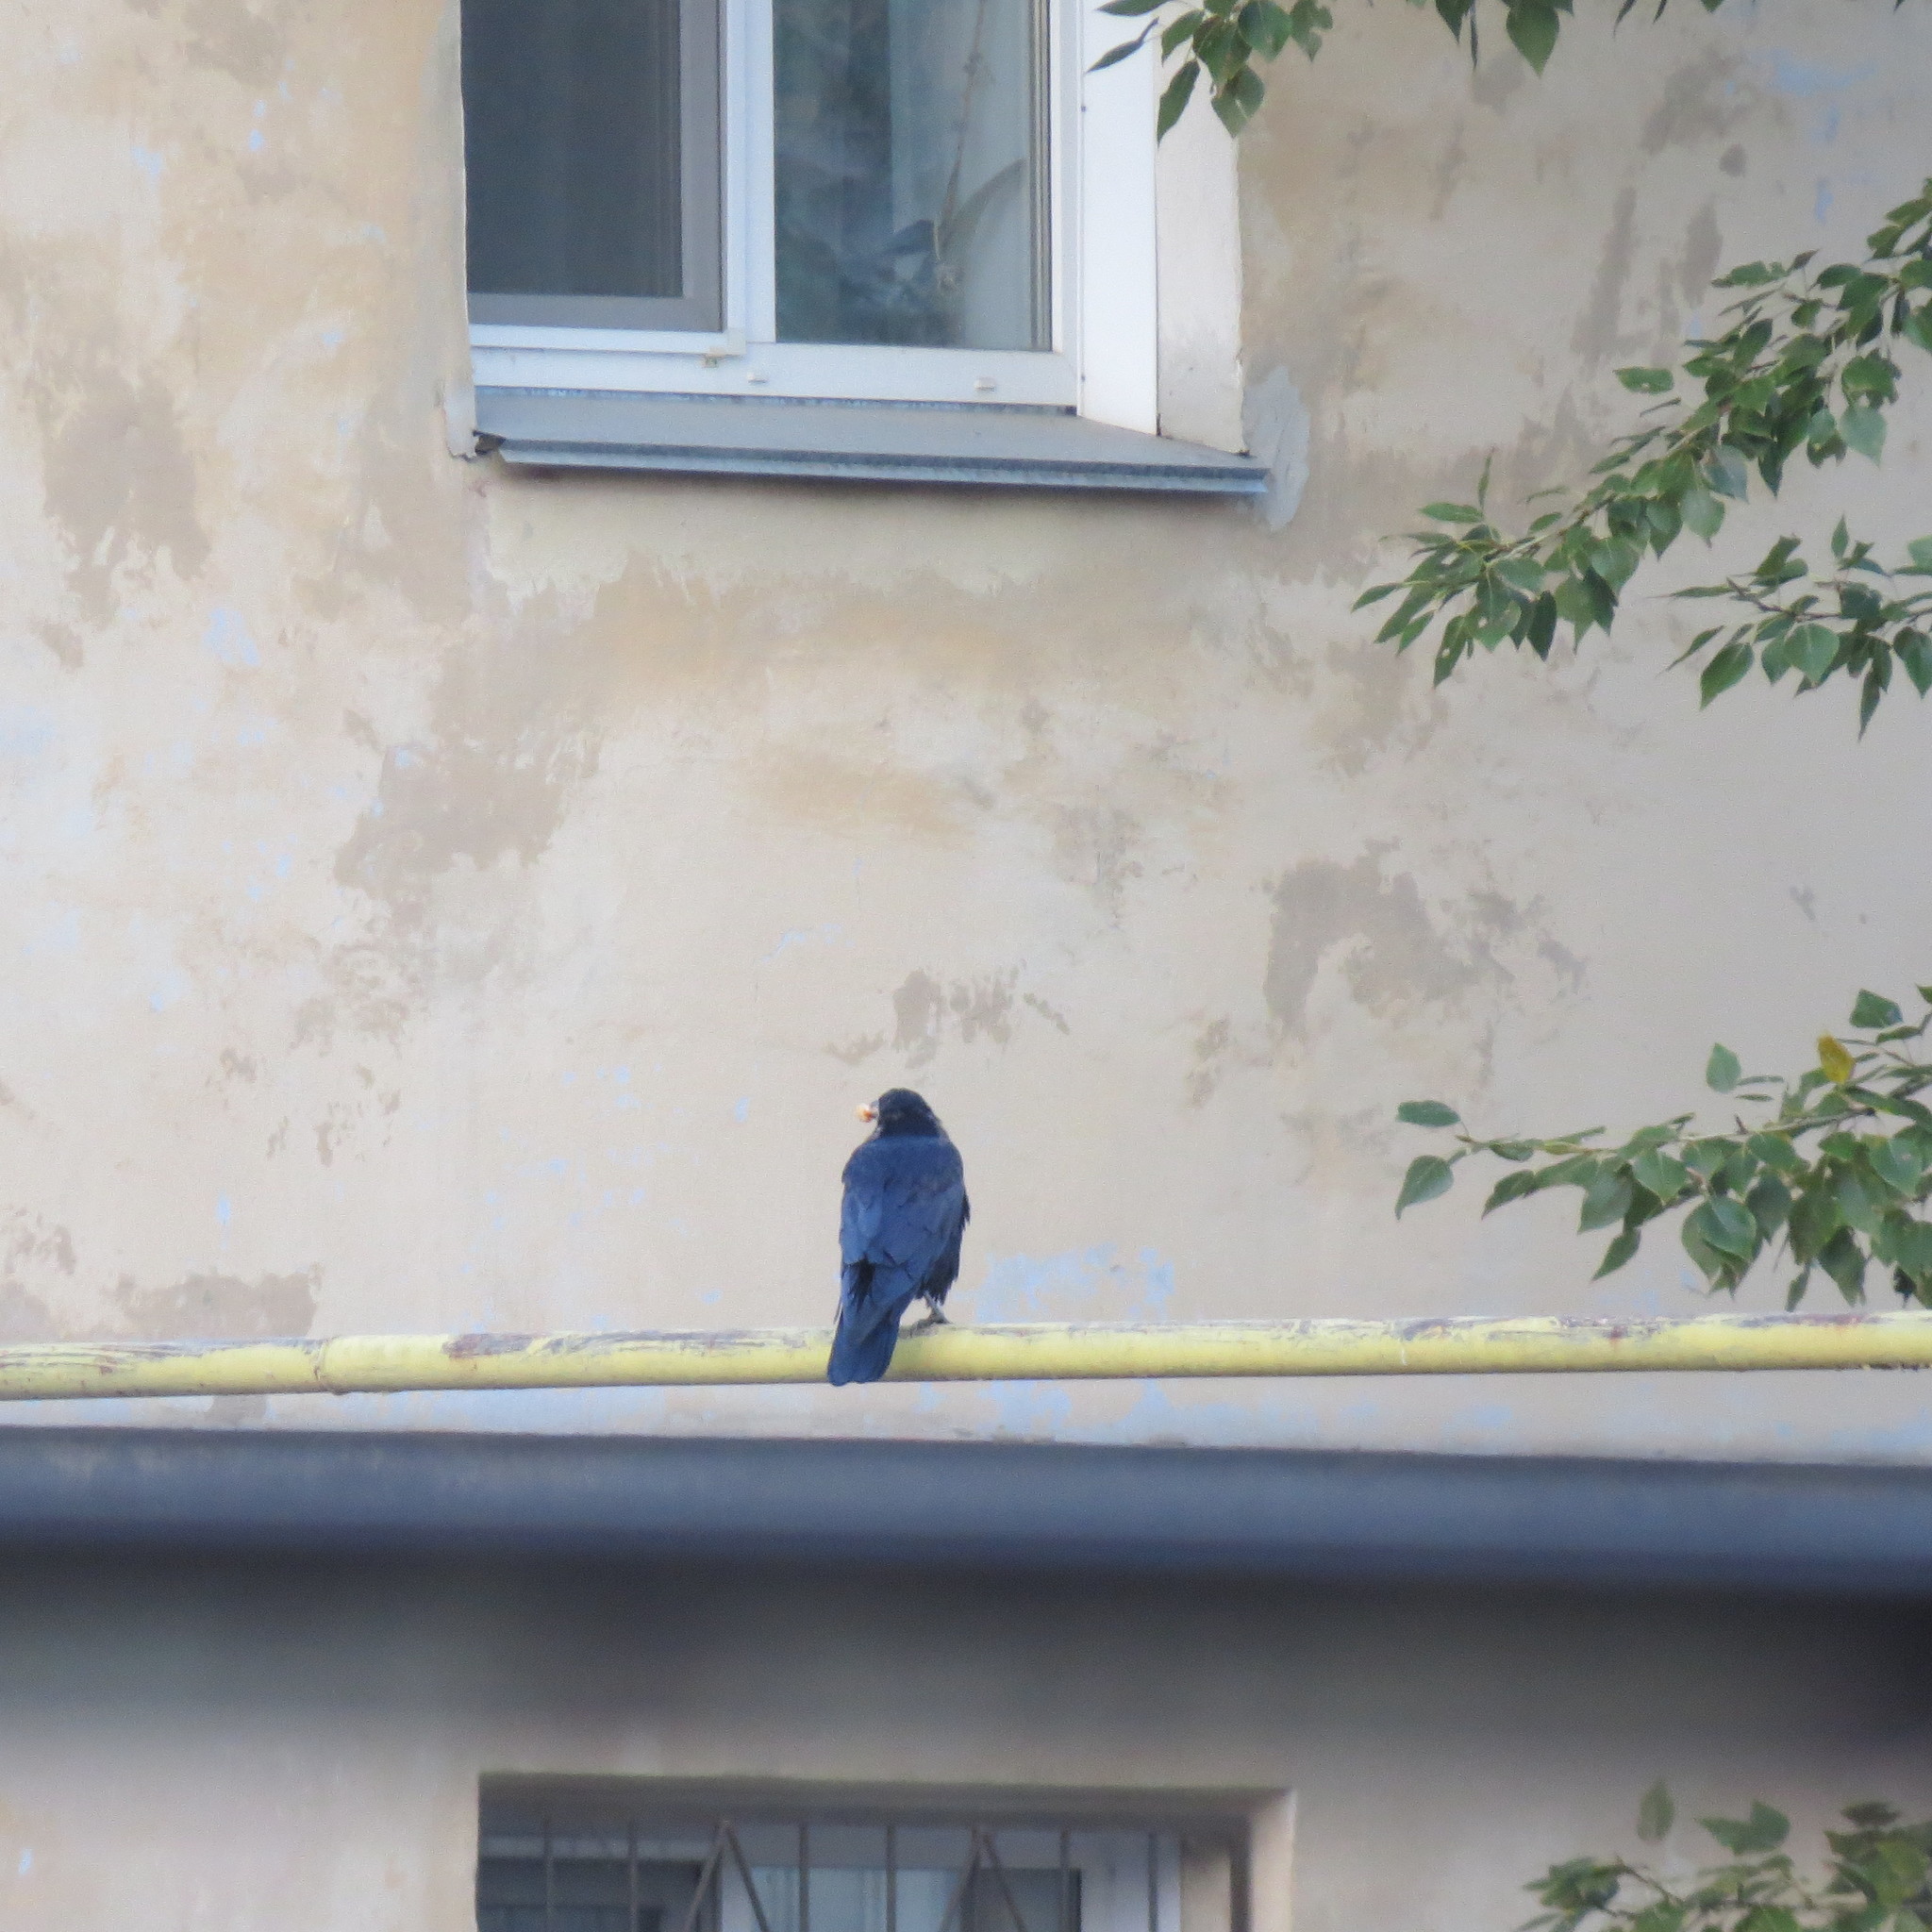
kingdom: Animalia
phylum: Chordata
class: Aves
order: Passeriformes
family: Corvidae
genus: Corvus
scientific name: Corvus frugilegus
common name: Rook
